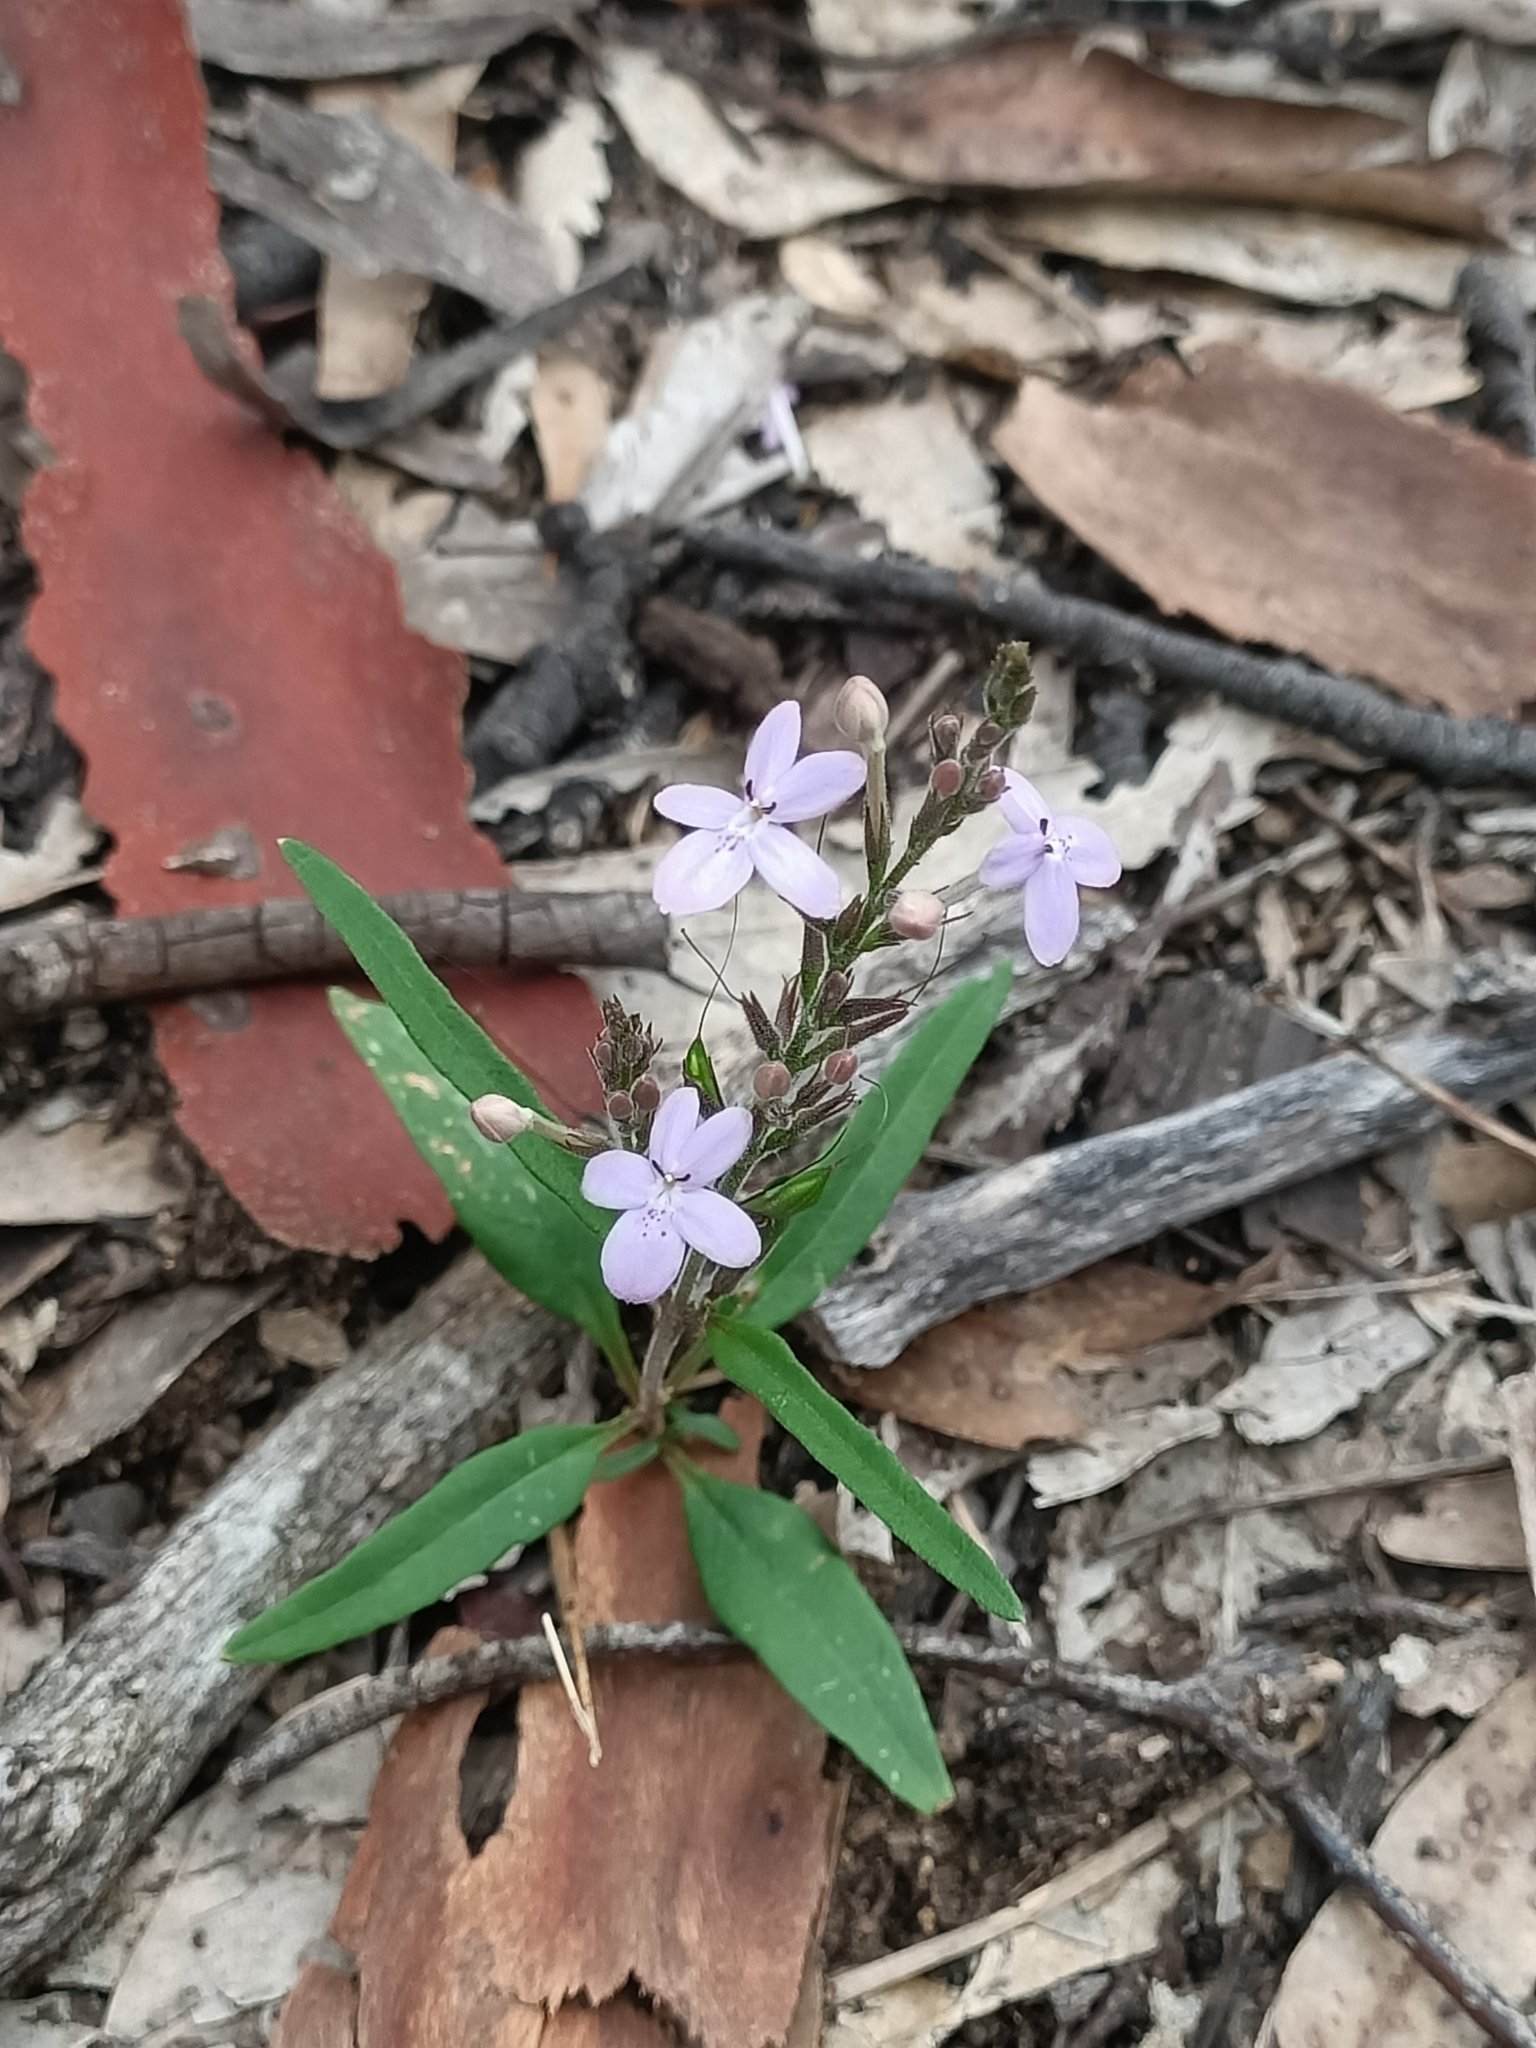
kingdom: Plantae
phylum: Tracheophyta
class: Magnoliopsida
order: Lamiales
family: Acanthaceae
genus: Pseuderanthemum
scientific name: Pseuderanthemum variabile
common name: Night and afternoon
